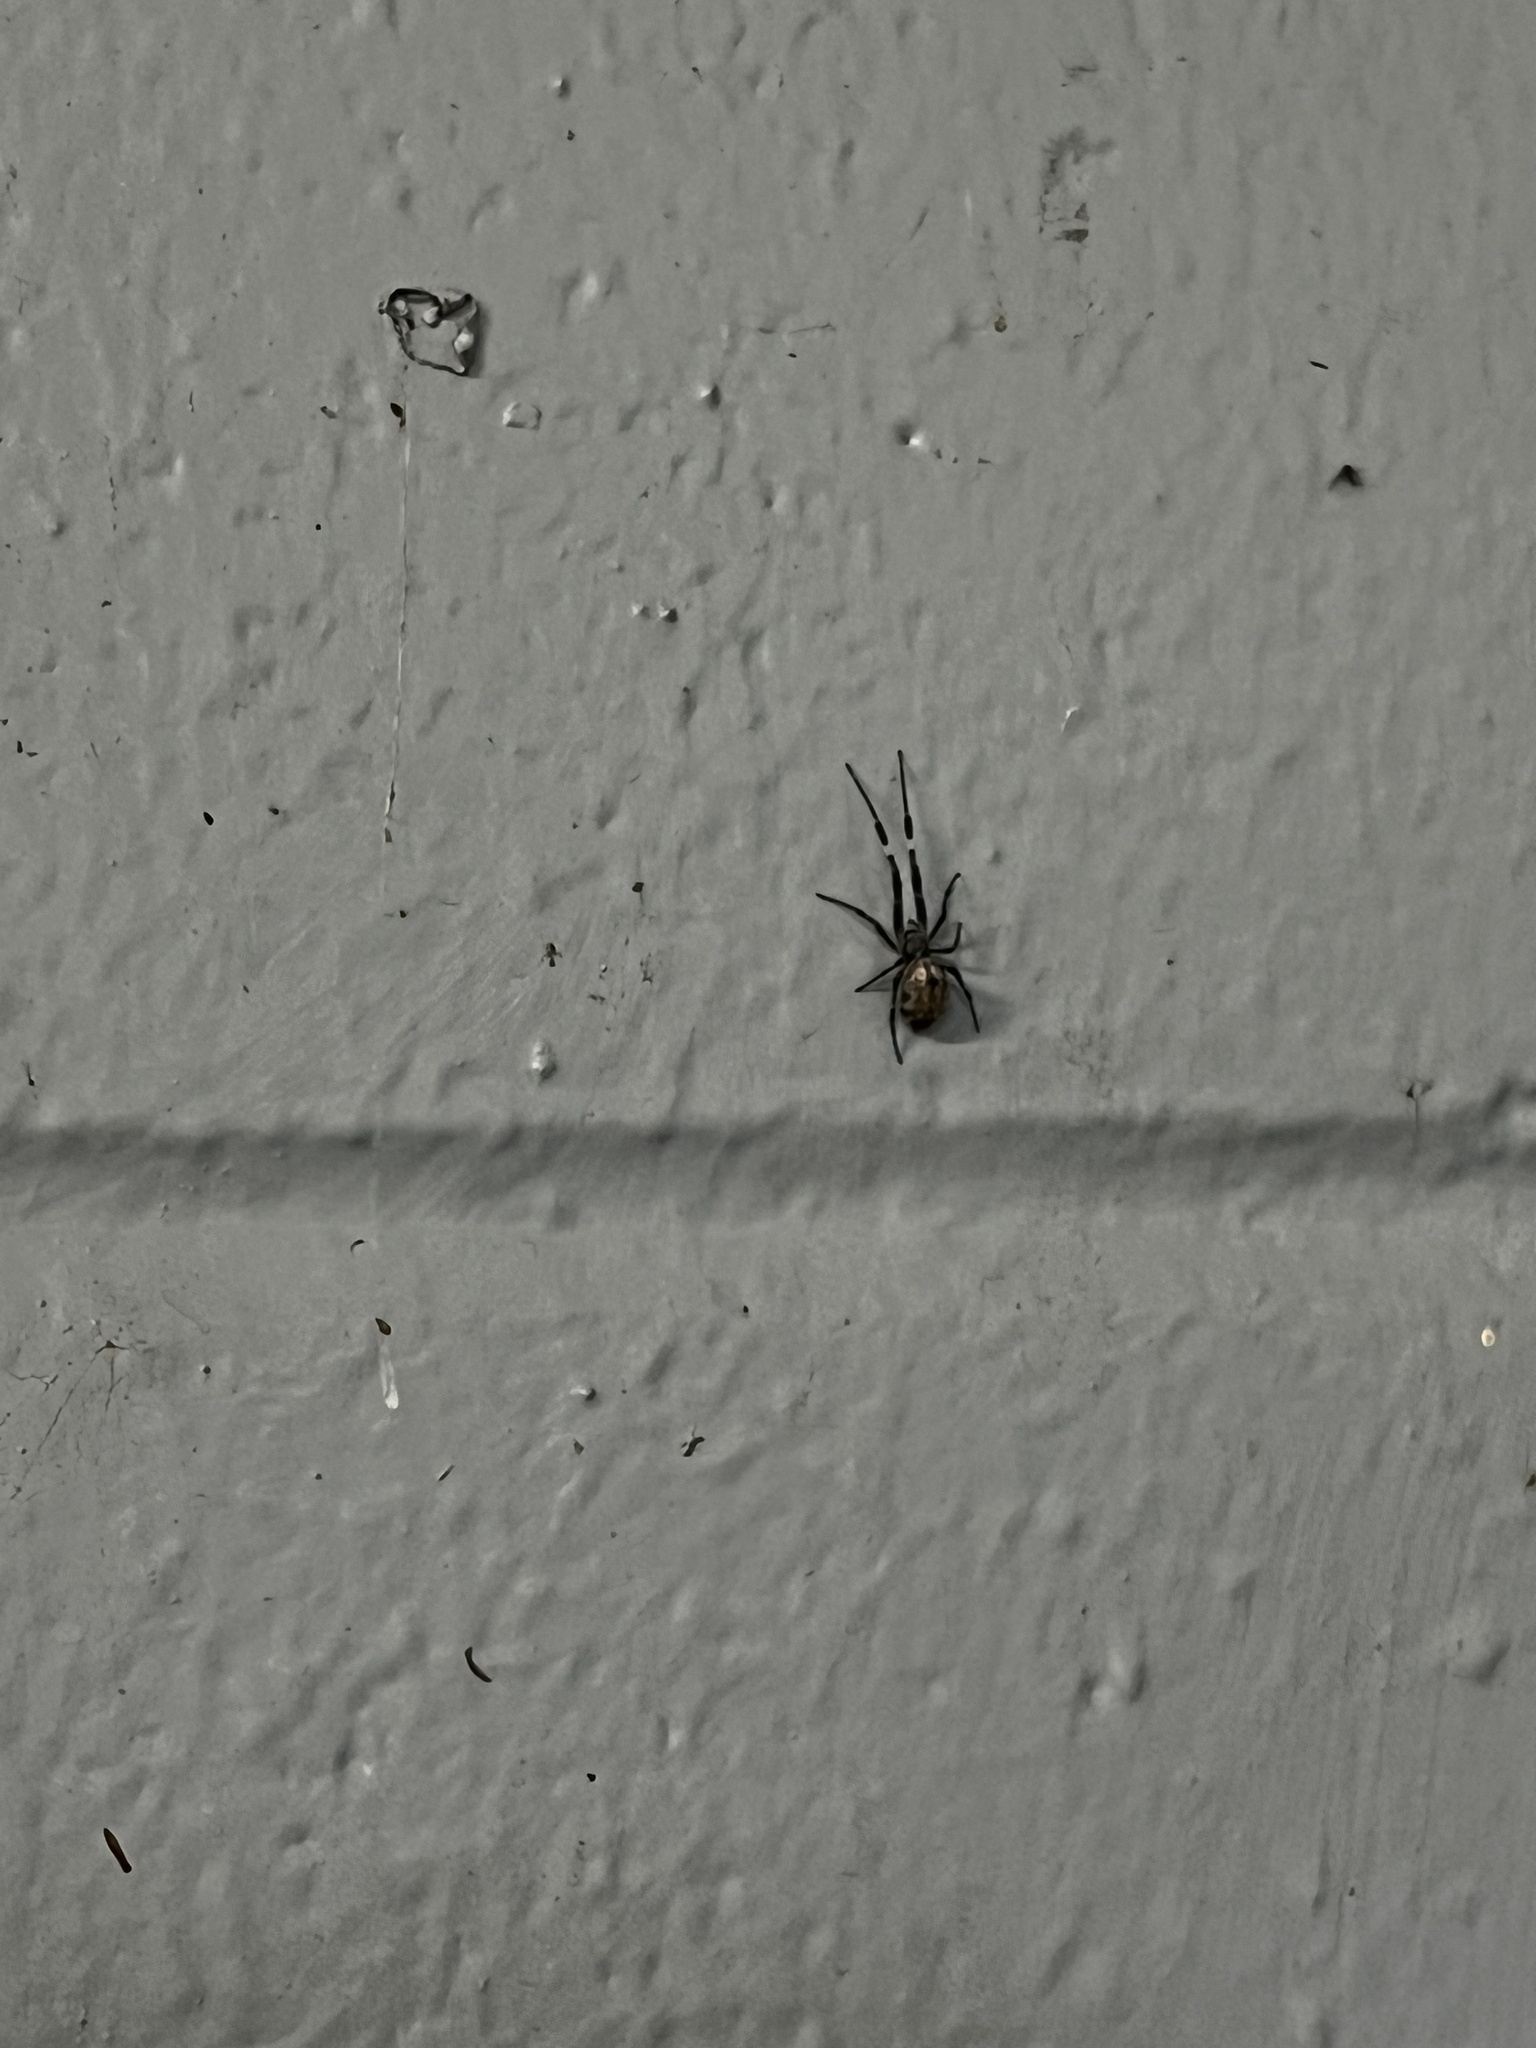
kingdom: Animalia
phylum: Arthropoda
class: Arachnida
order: Araneae
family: Uloboridae
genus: Zosis
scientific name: Zosis geniculata
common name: Hackled orb weavers
